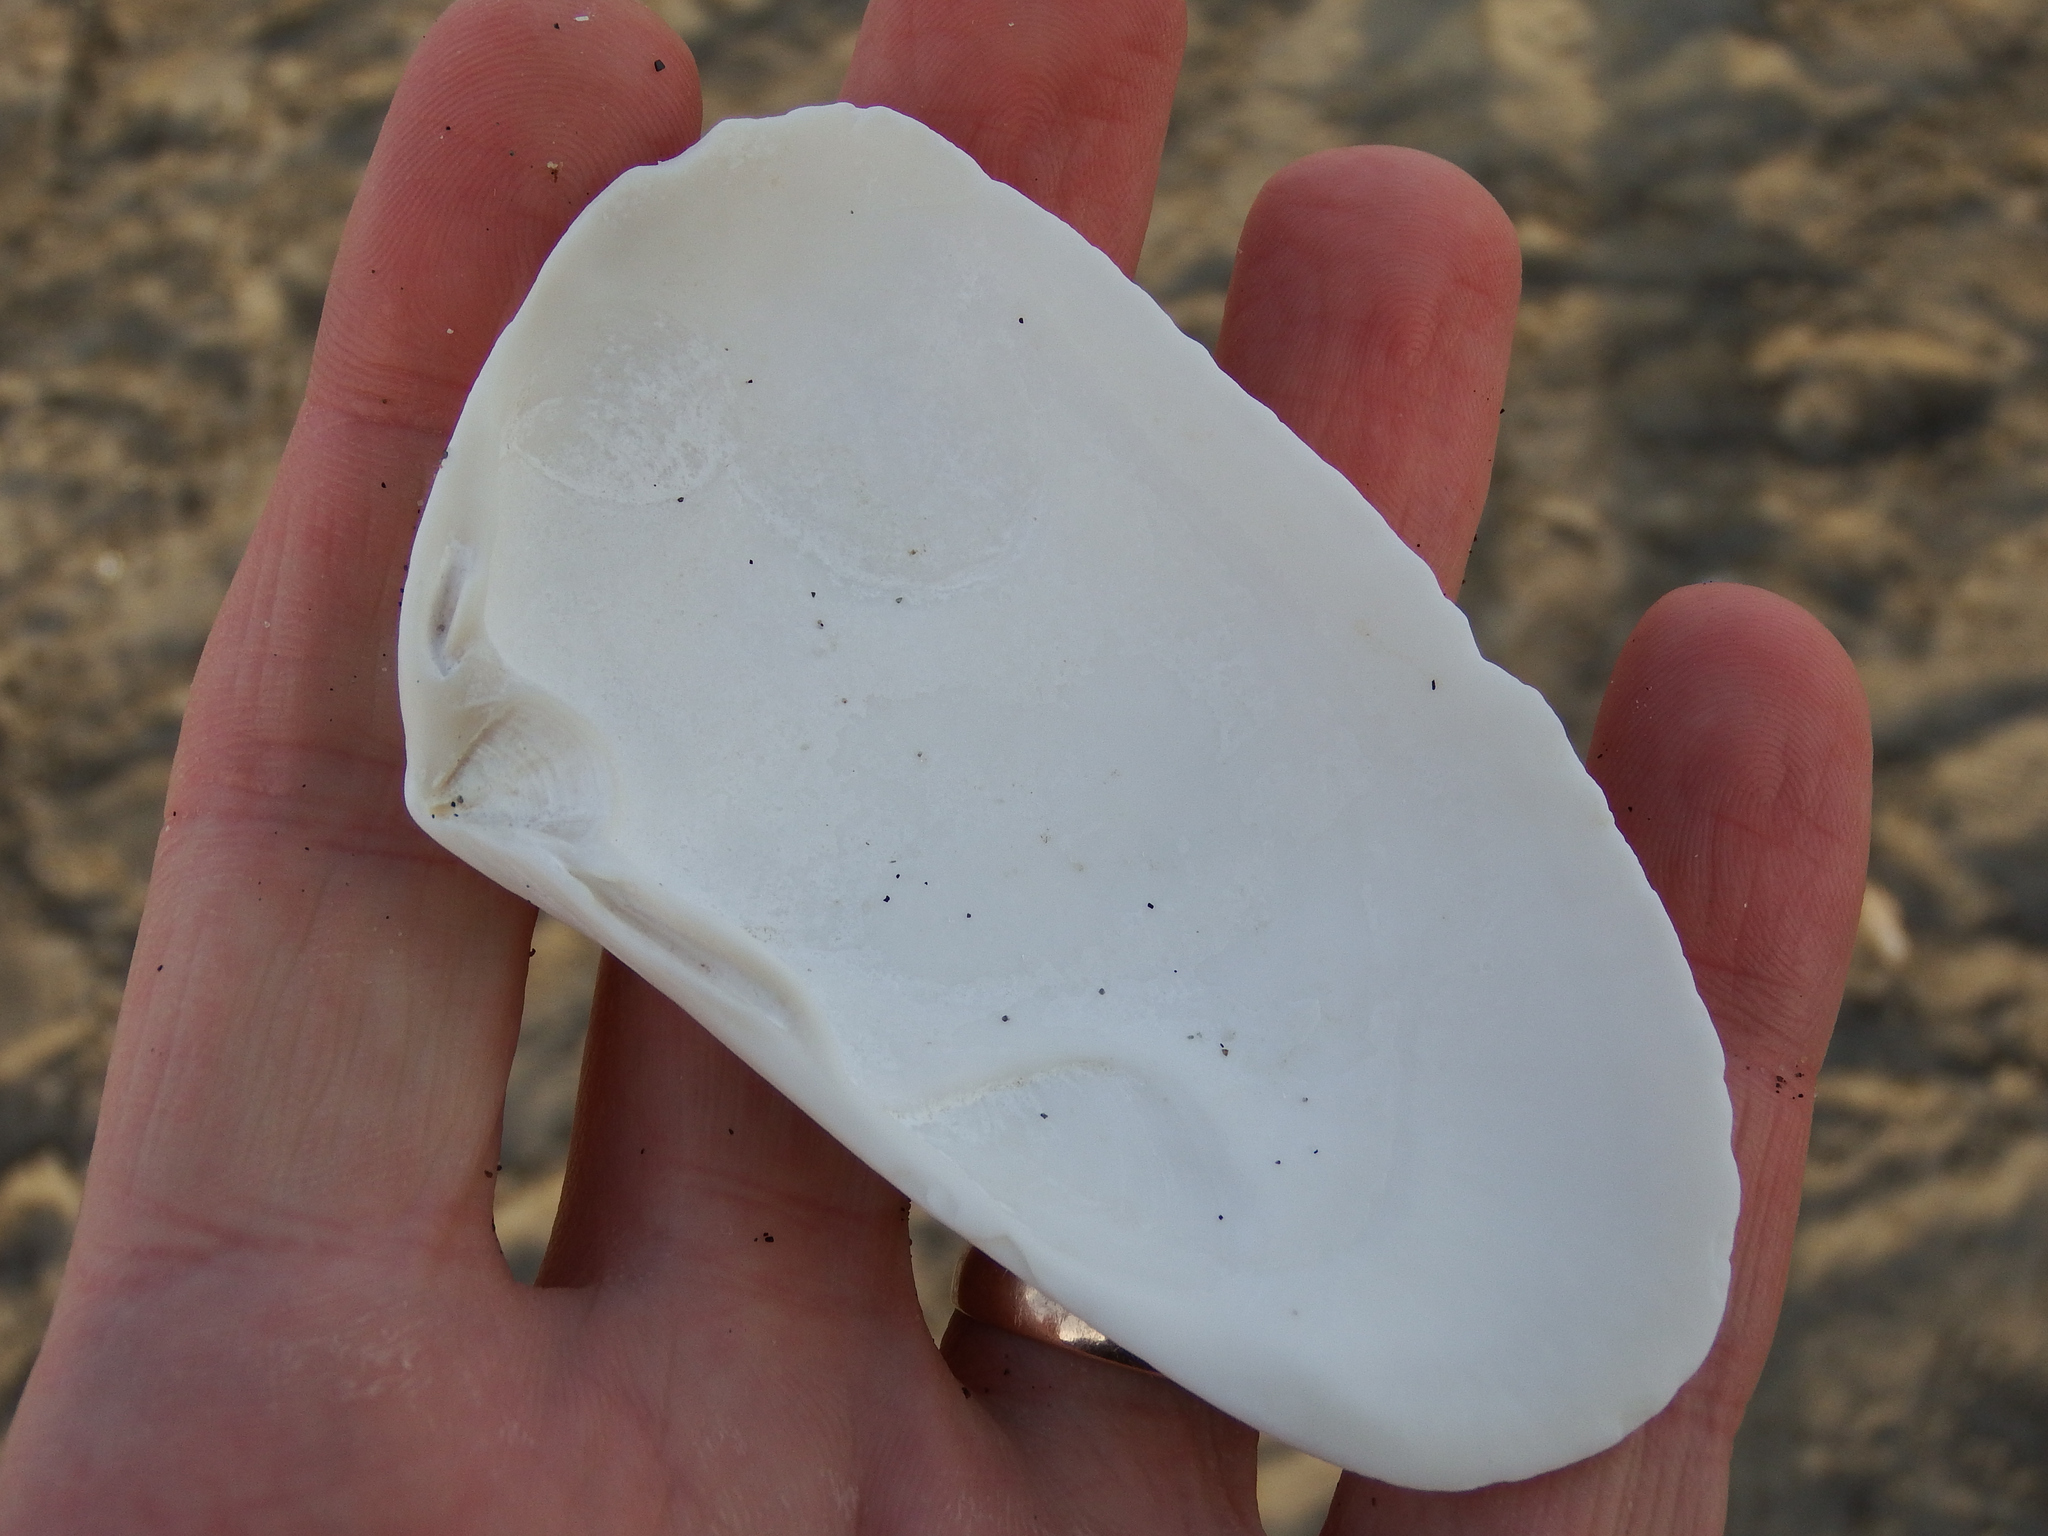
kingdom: Animalia
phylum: Mollusca
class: Bivalvia
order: Venerida
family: Mesodesmatidae
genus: Mesodesma
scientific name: Mesodesma donacium
